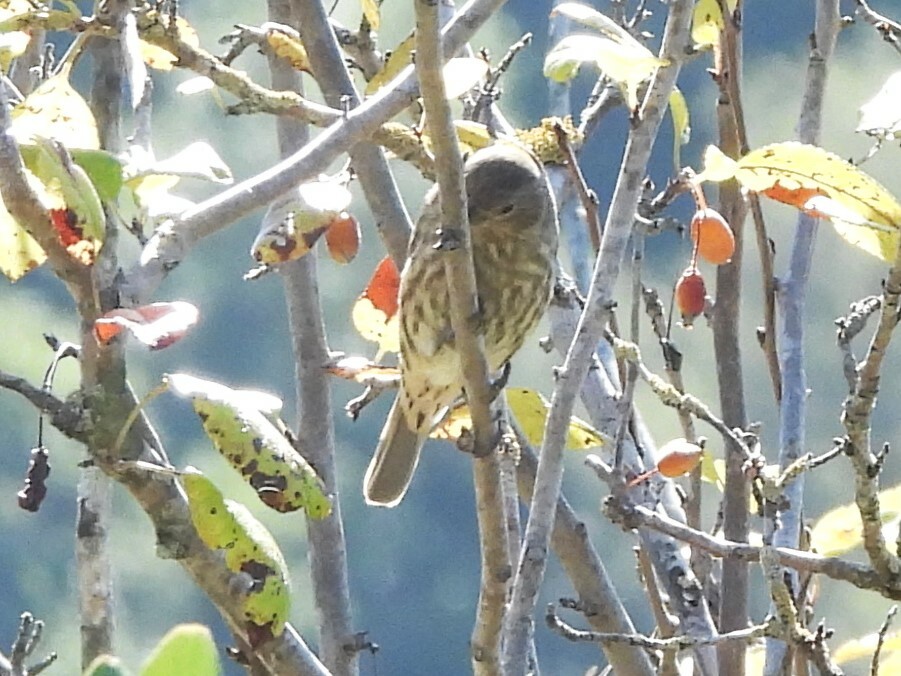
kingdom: Animalia
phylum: Chordata
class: Aves
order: Passeriformes
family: Fringillidae
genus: Haemorhous
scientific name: Haemorhous mexicanus
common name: House finch
